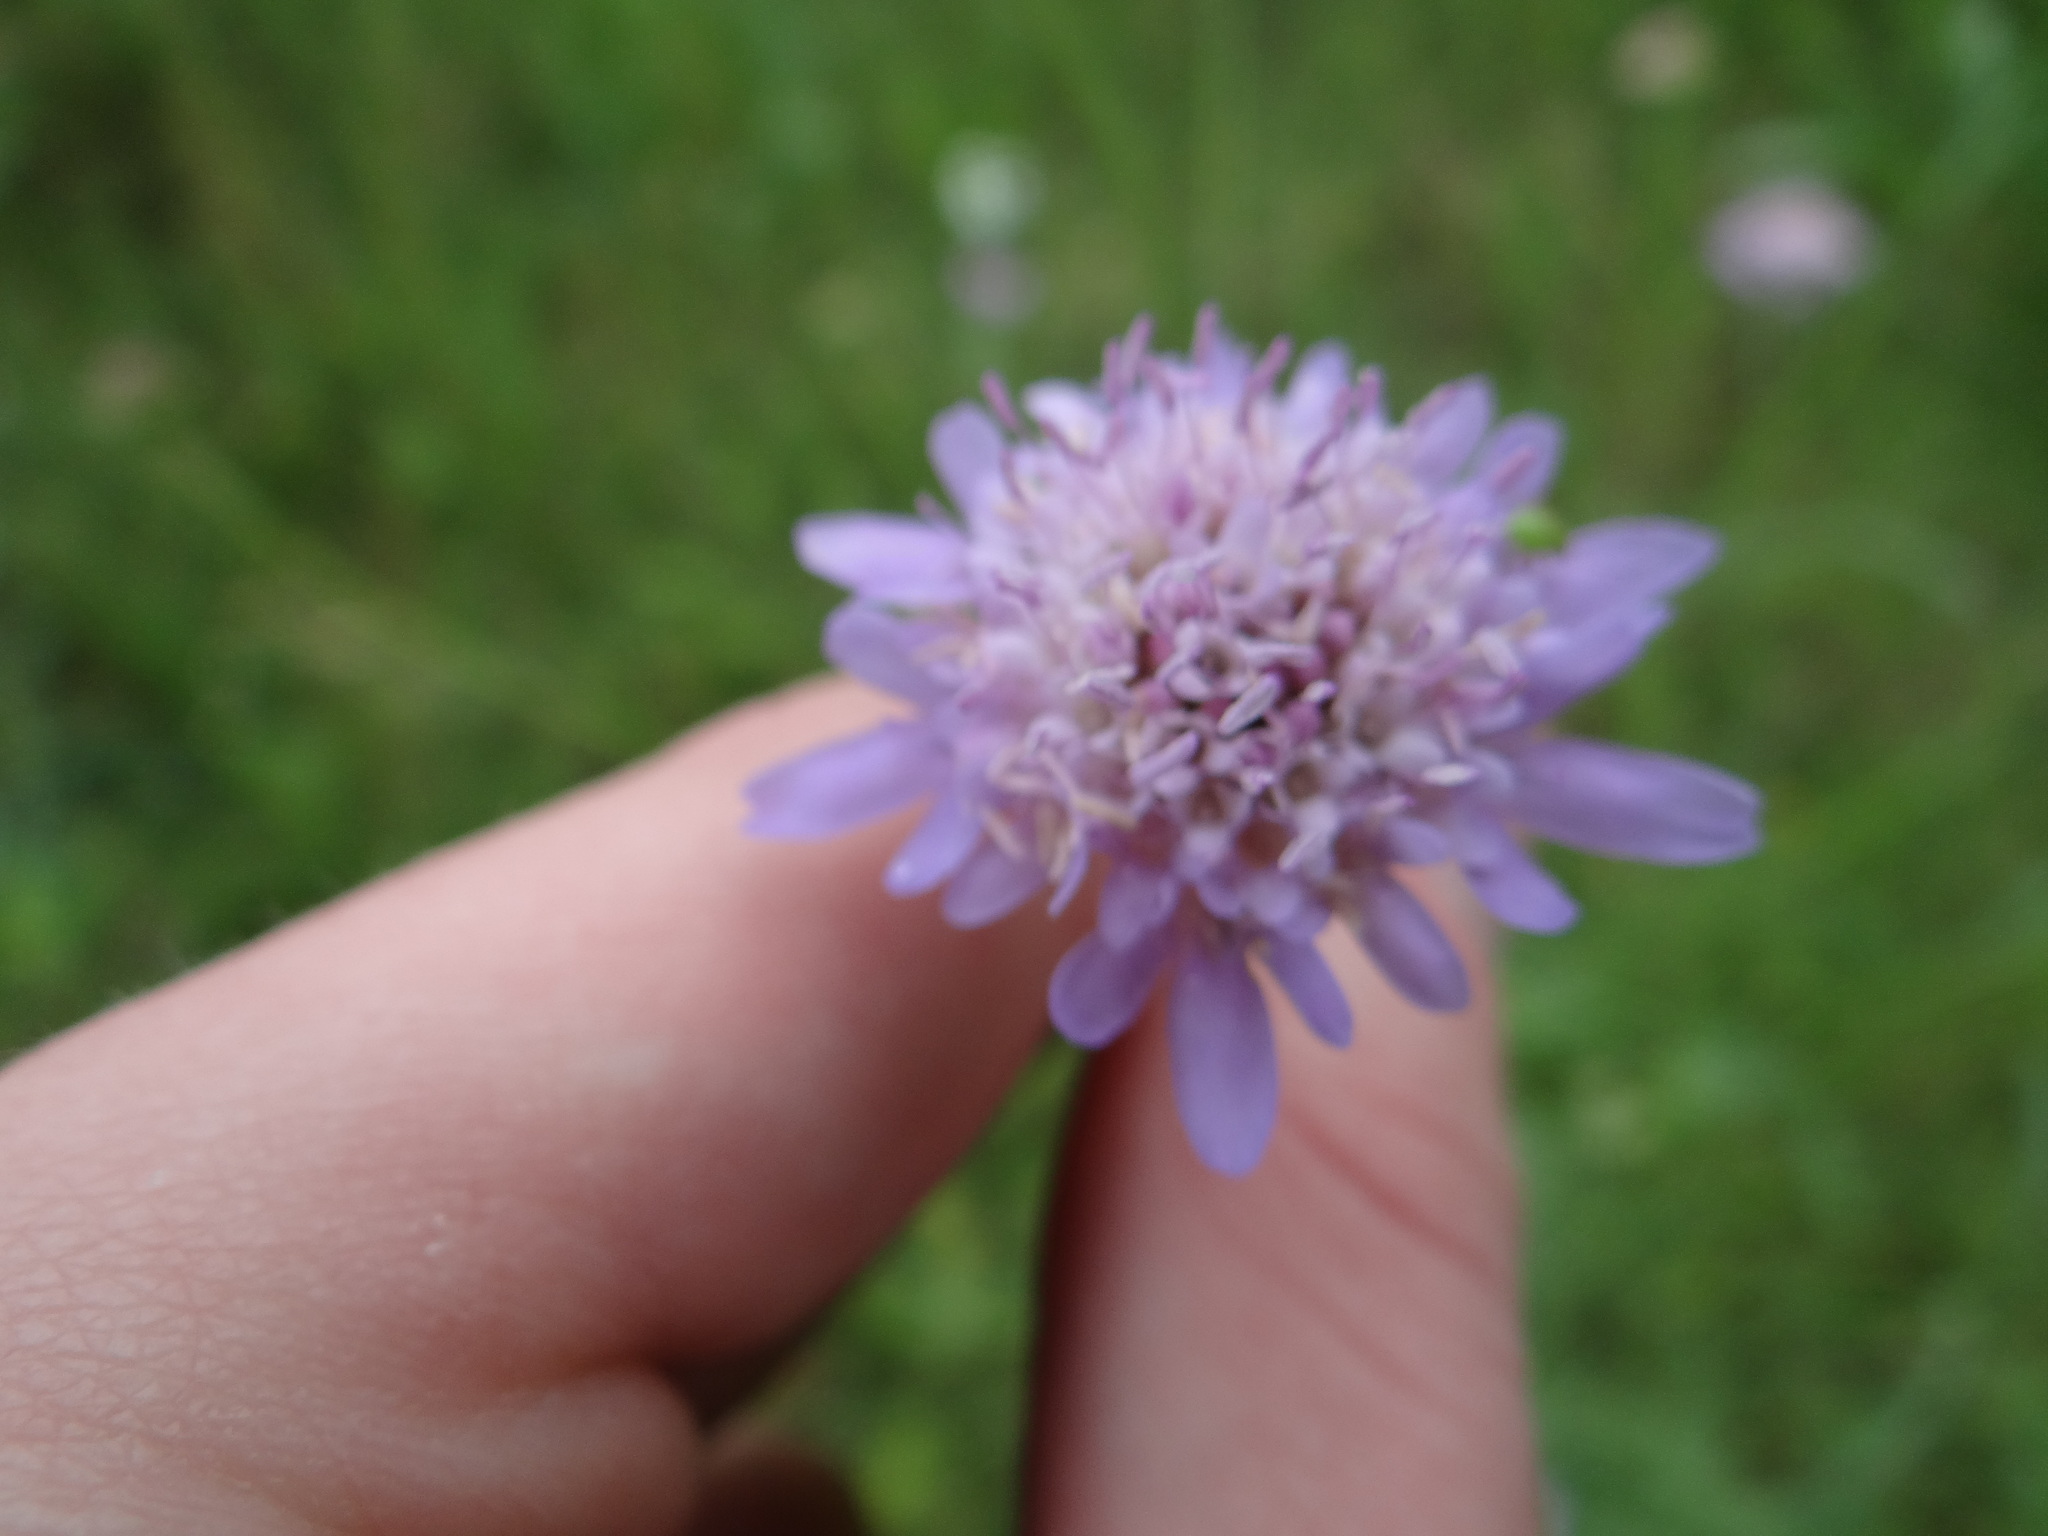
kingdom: Plantae
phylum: Tracheophyta
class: Magnoliopsida
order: Dipsacales
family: Caprifoliaceae
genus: Sixalix
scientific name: Sixalix atropurpurea
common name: Sweet scabious
